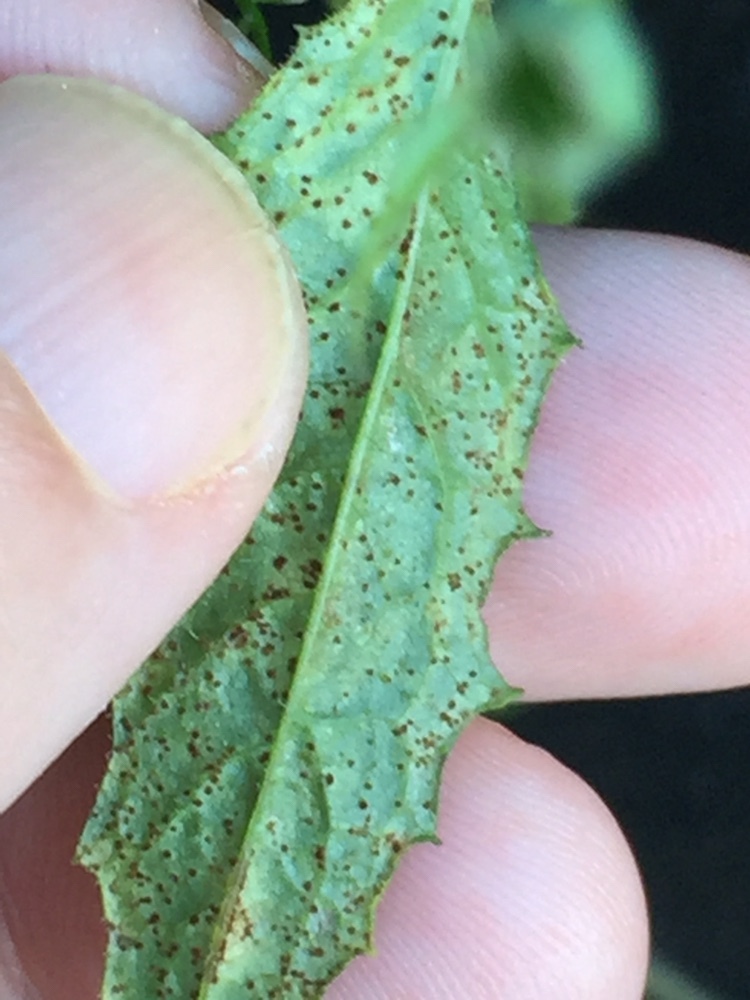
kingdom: Fungi
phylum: Basidiomycota
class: Pucciniomycetes
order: Pucciniales
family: Pucciniaceae
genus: Puccinia
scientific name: Puccinia lapsanae
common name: Nipplewort rust
